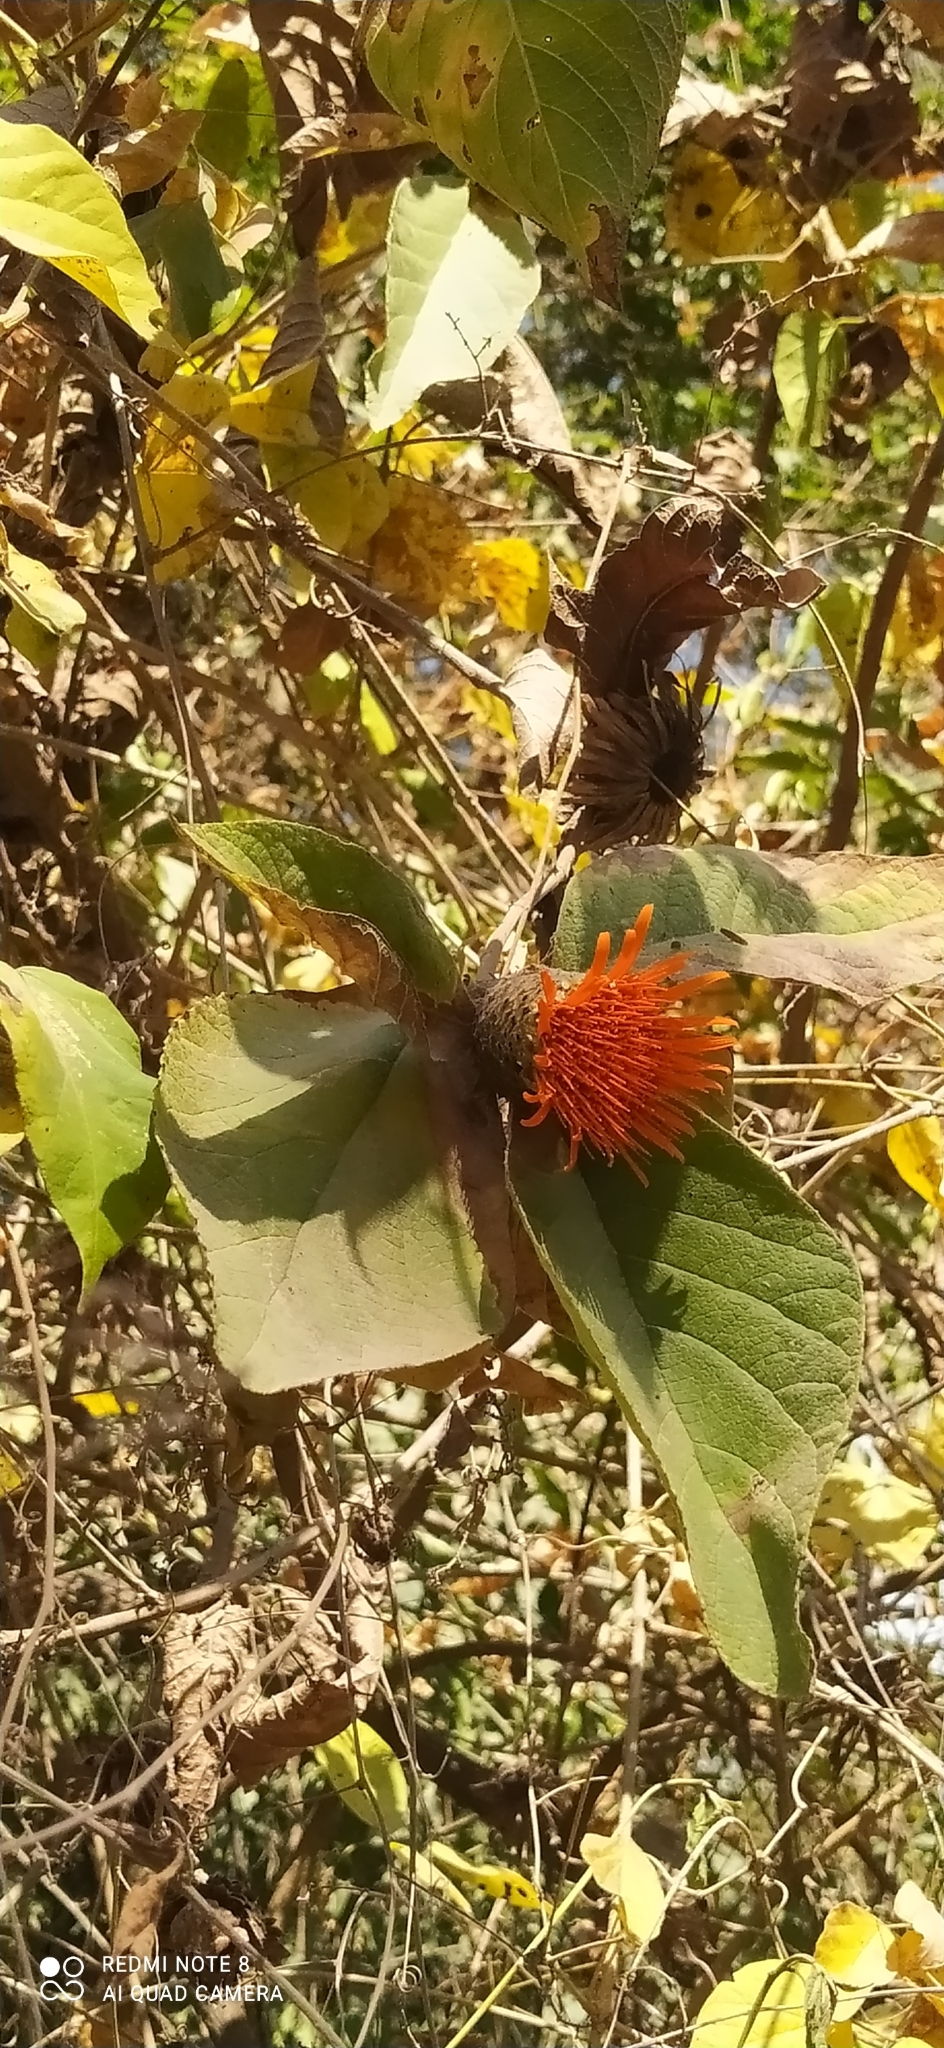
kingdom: Plantae
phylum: Tracheophyta
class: Magnoliopsida
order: Asterales
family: Asteraceae
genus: Cnicothamnus
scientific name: Cnicothamnus lorentzii
